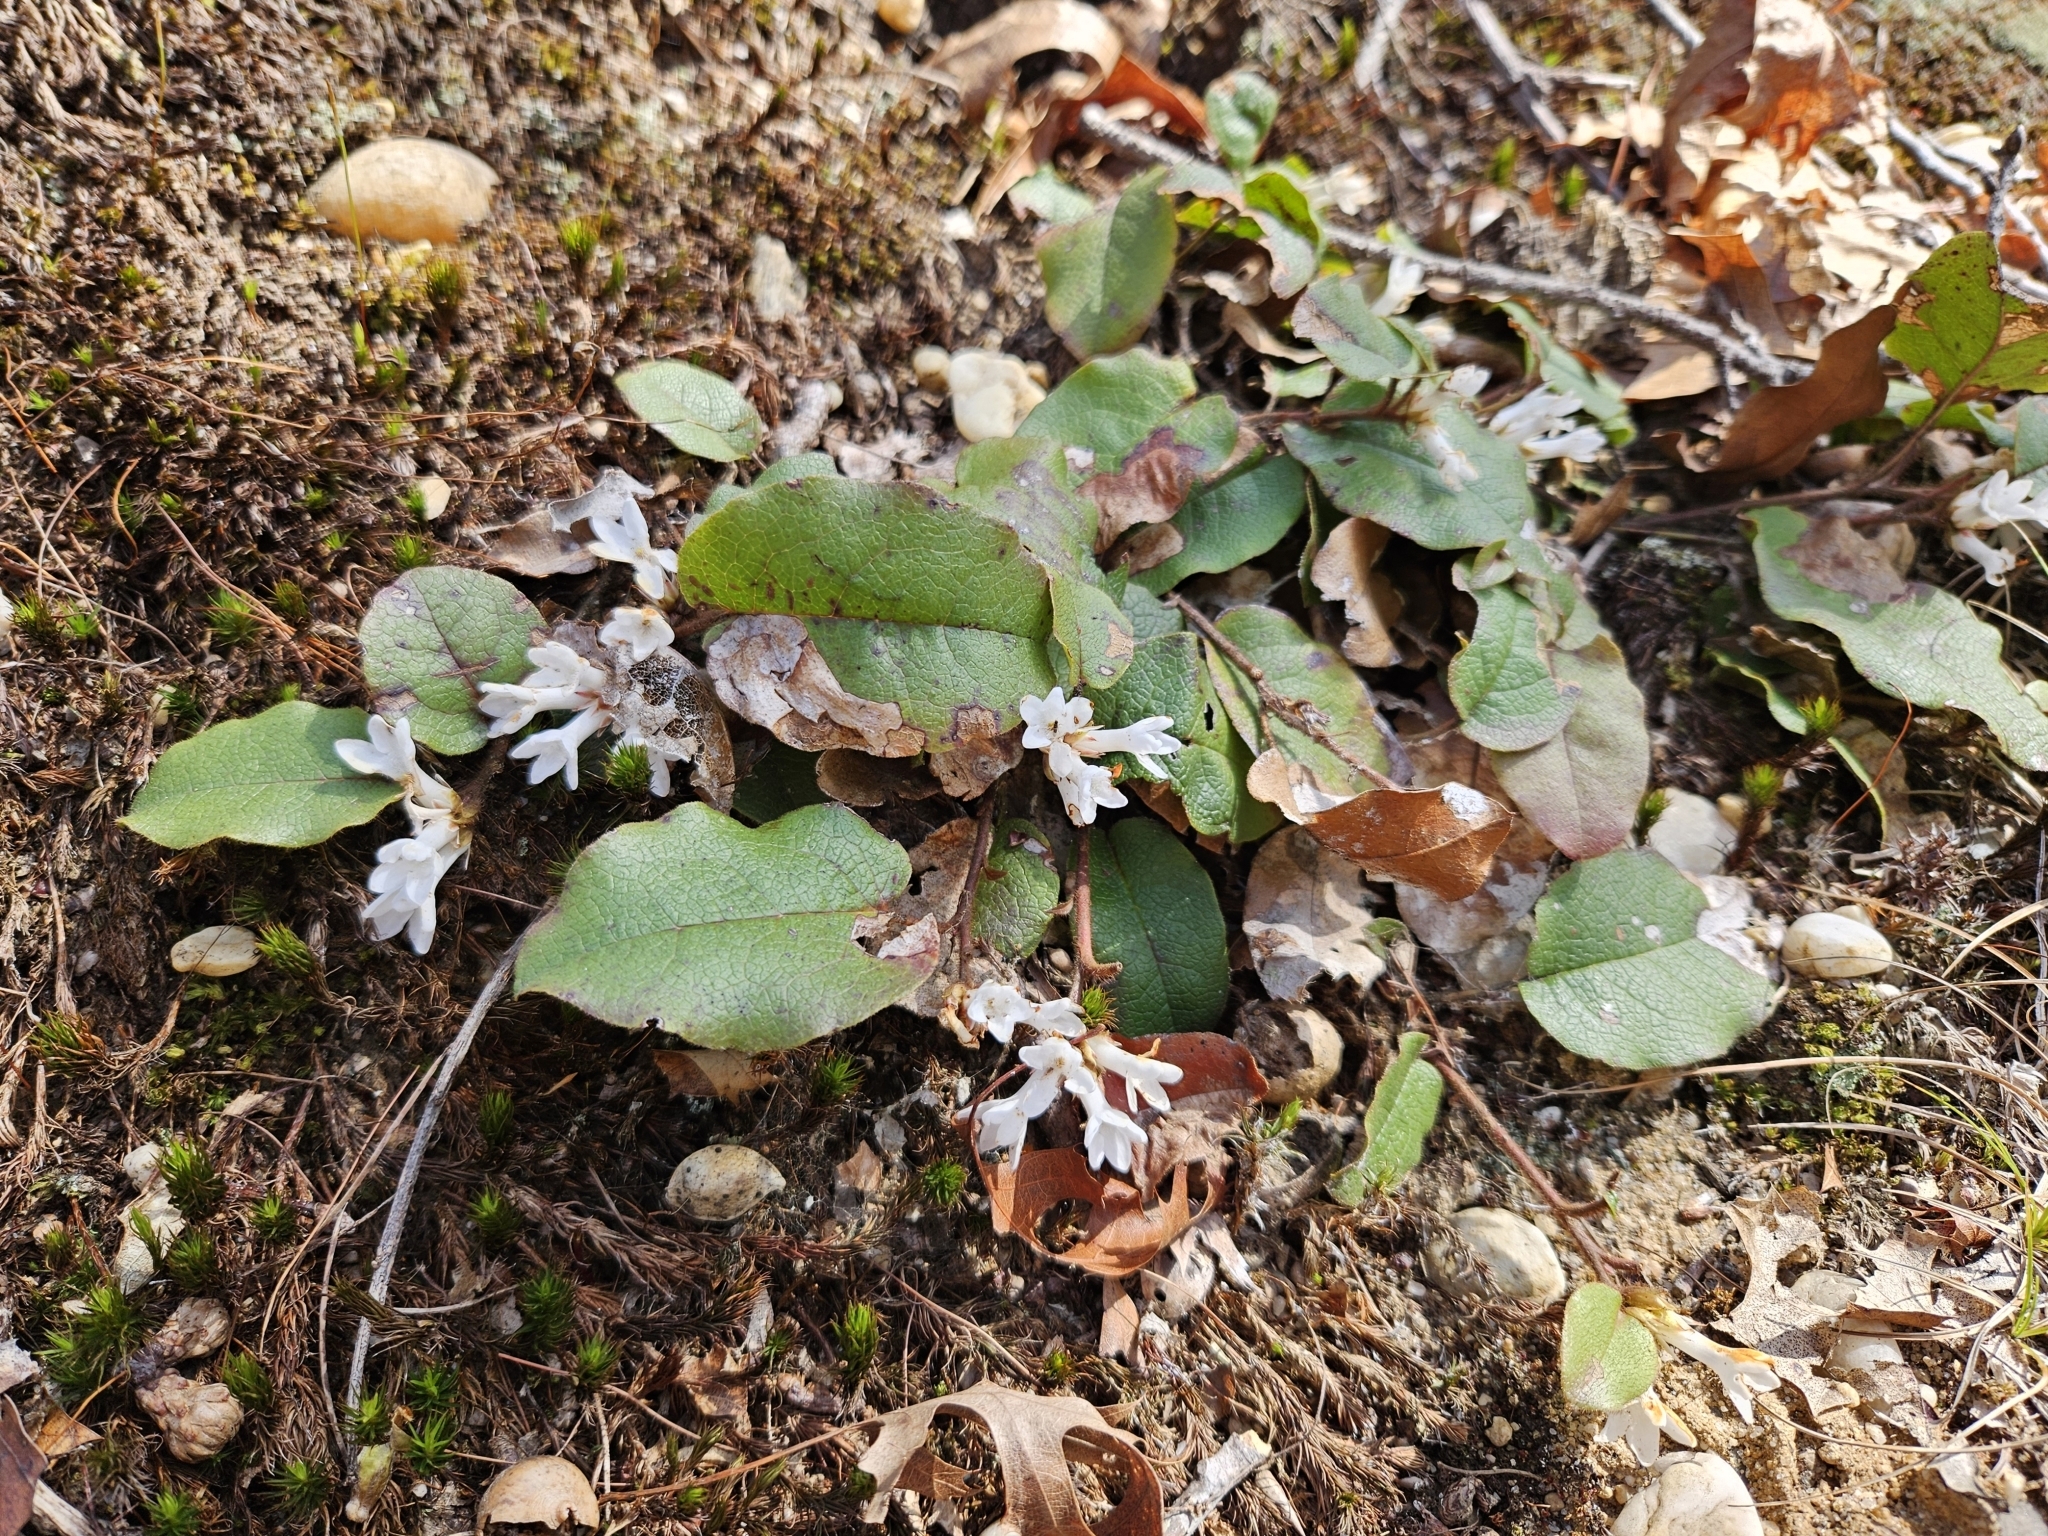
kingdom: Plantae
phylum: Tracheophyta
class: Magnoliopsida
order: Ericales
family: Ericaceae
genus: Epigaea
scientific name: Epigaea repens
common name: Gravelroot
